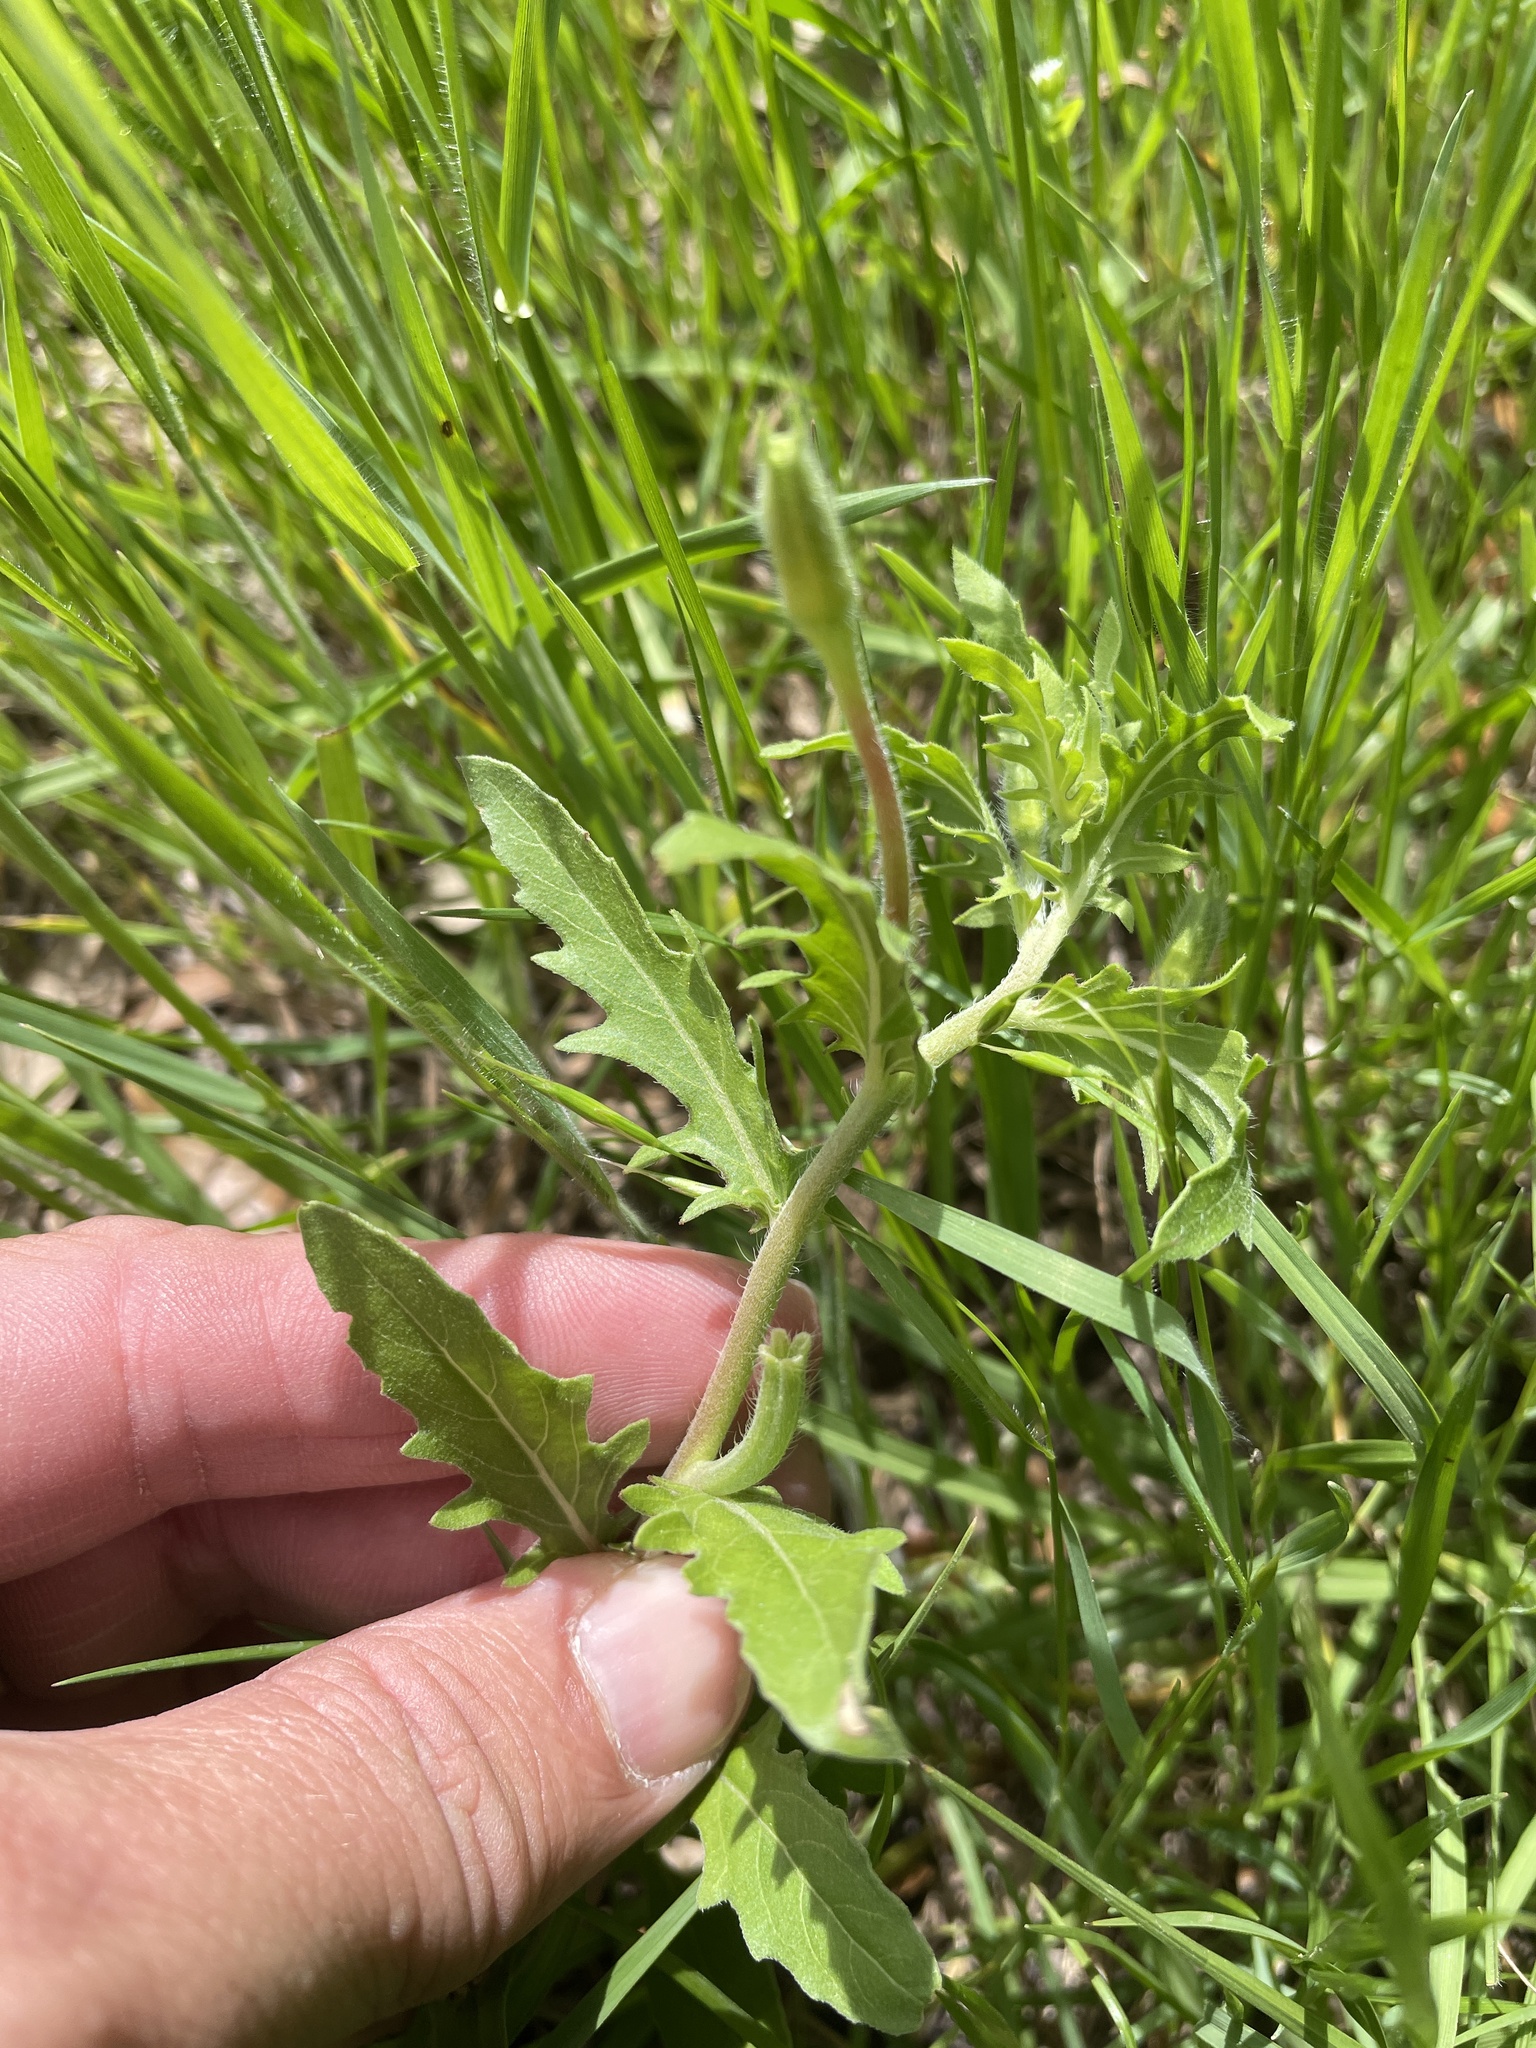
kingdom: Plantae
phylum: Tracheophyta
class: Magnoliopsida
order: Myrtales
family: Onagraceae
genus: Oenothera
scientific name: Oenothera laciniata
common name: Cut-leaved evening-primrose
